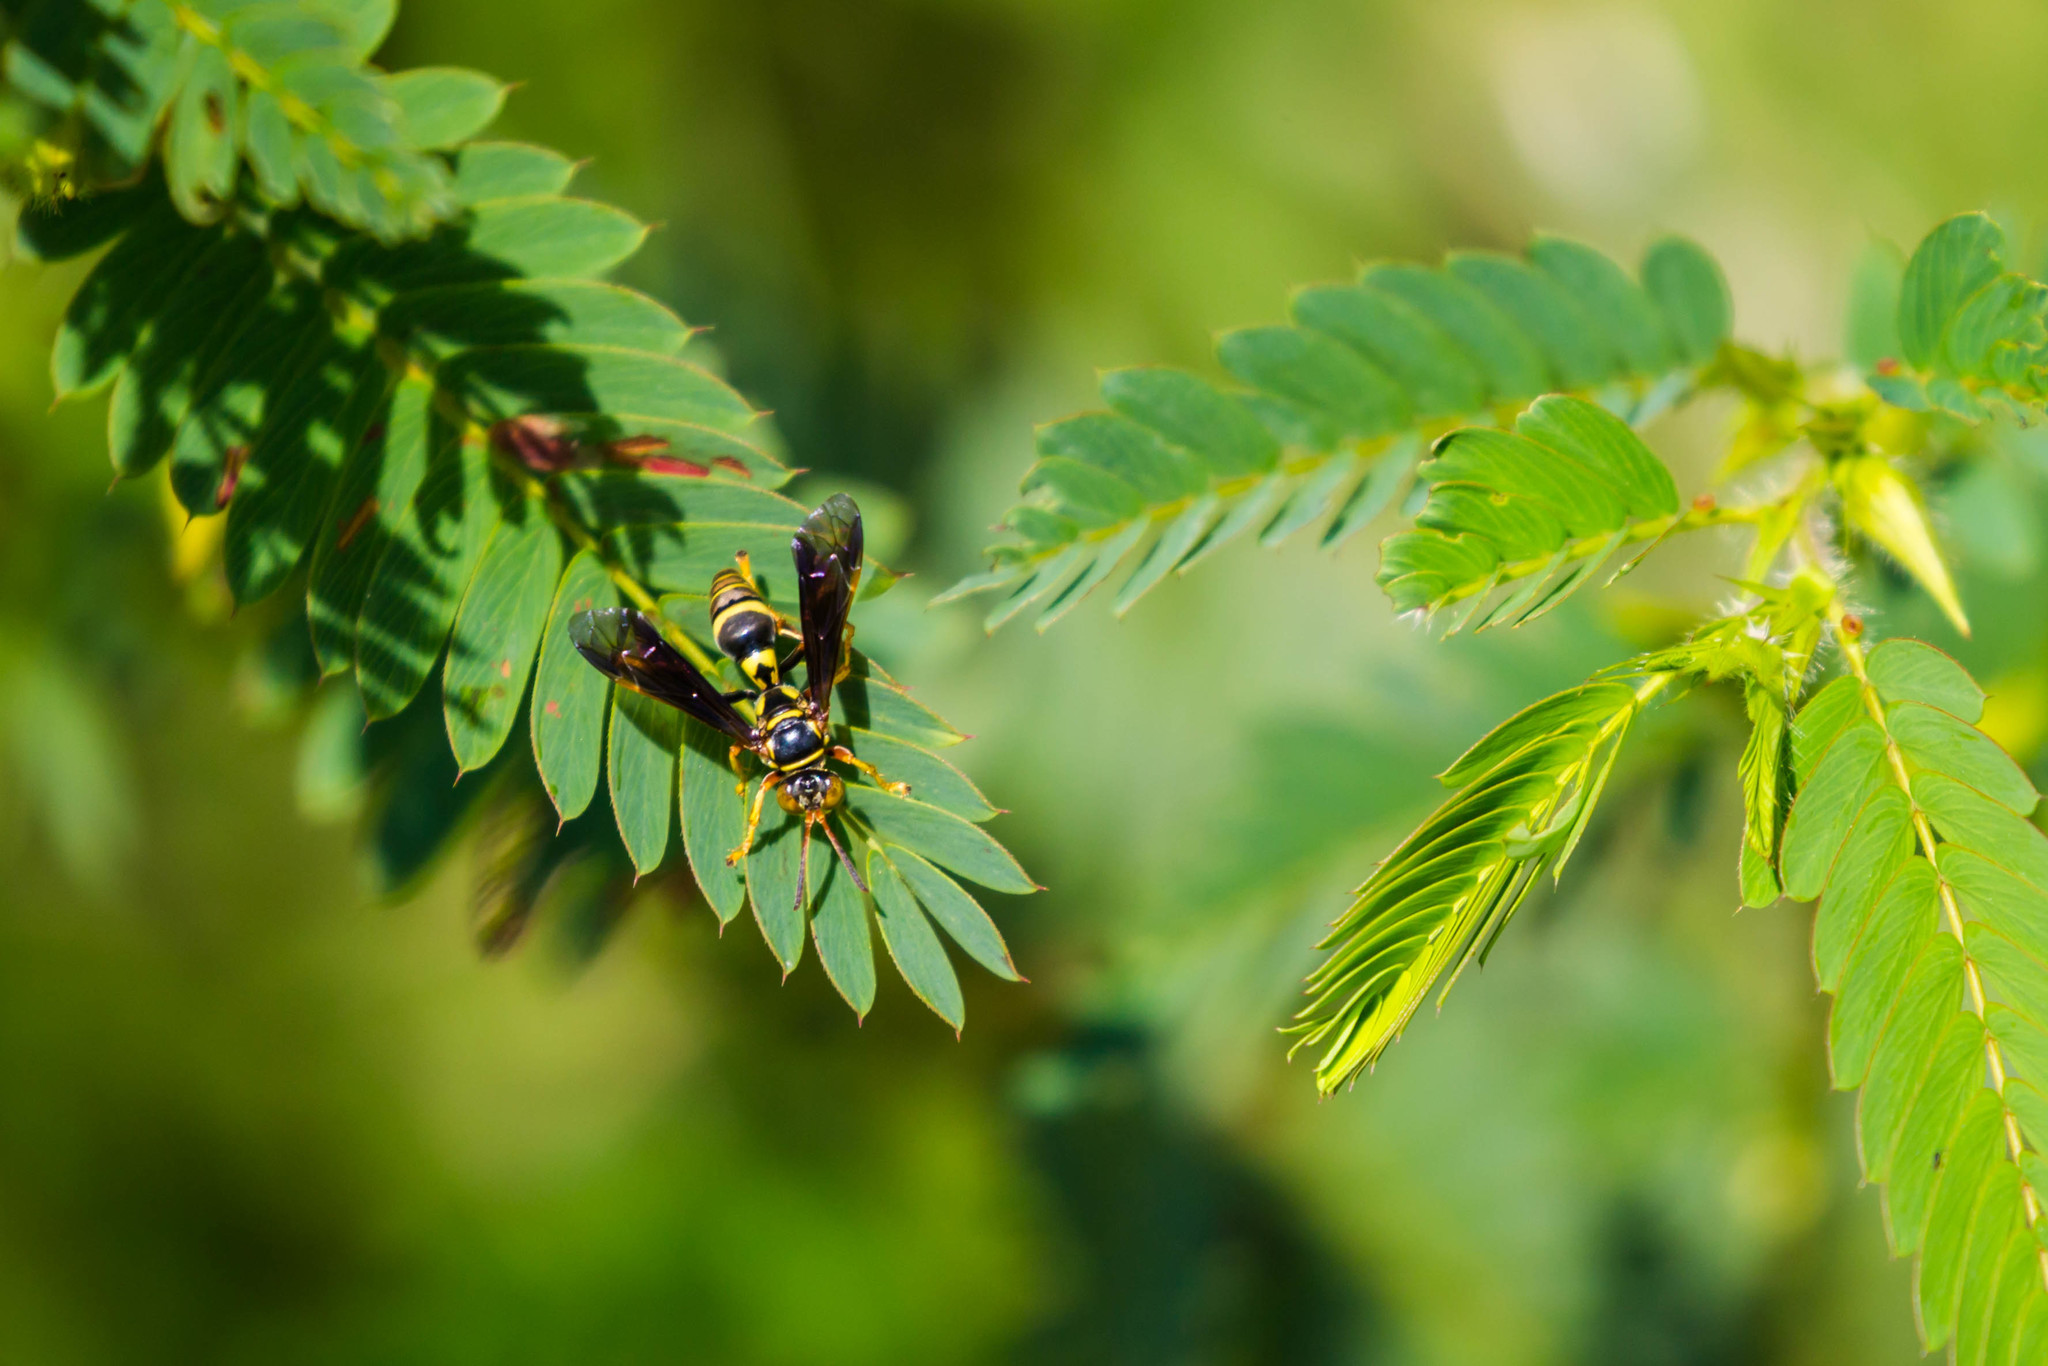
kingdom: Animalia
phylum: Arthropoda
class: Insecta
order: Hymenoptera
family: Crabronidae
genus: Saygorytes
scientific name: Saygorytes phaleratus
